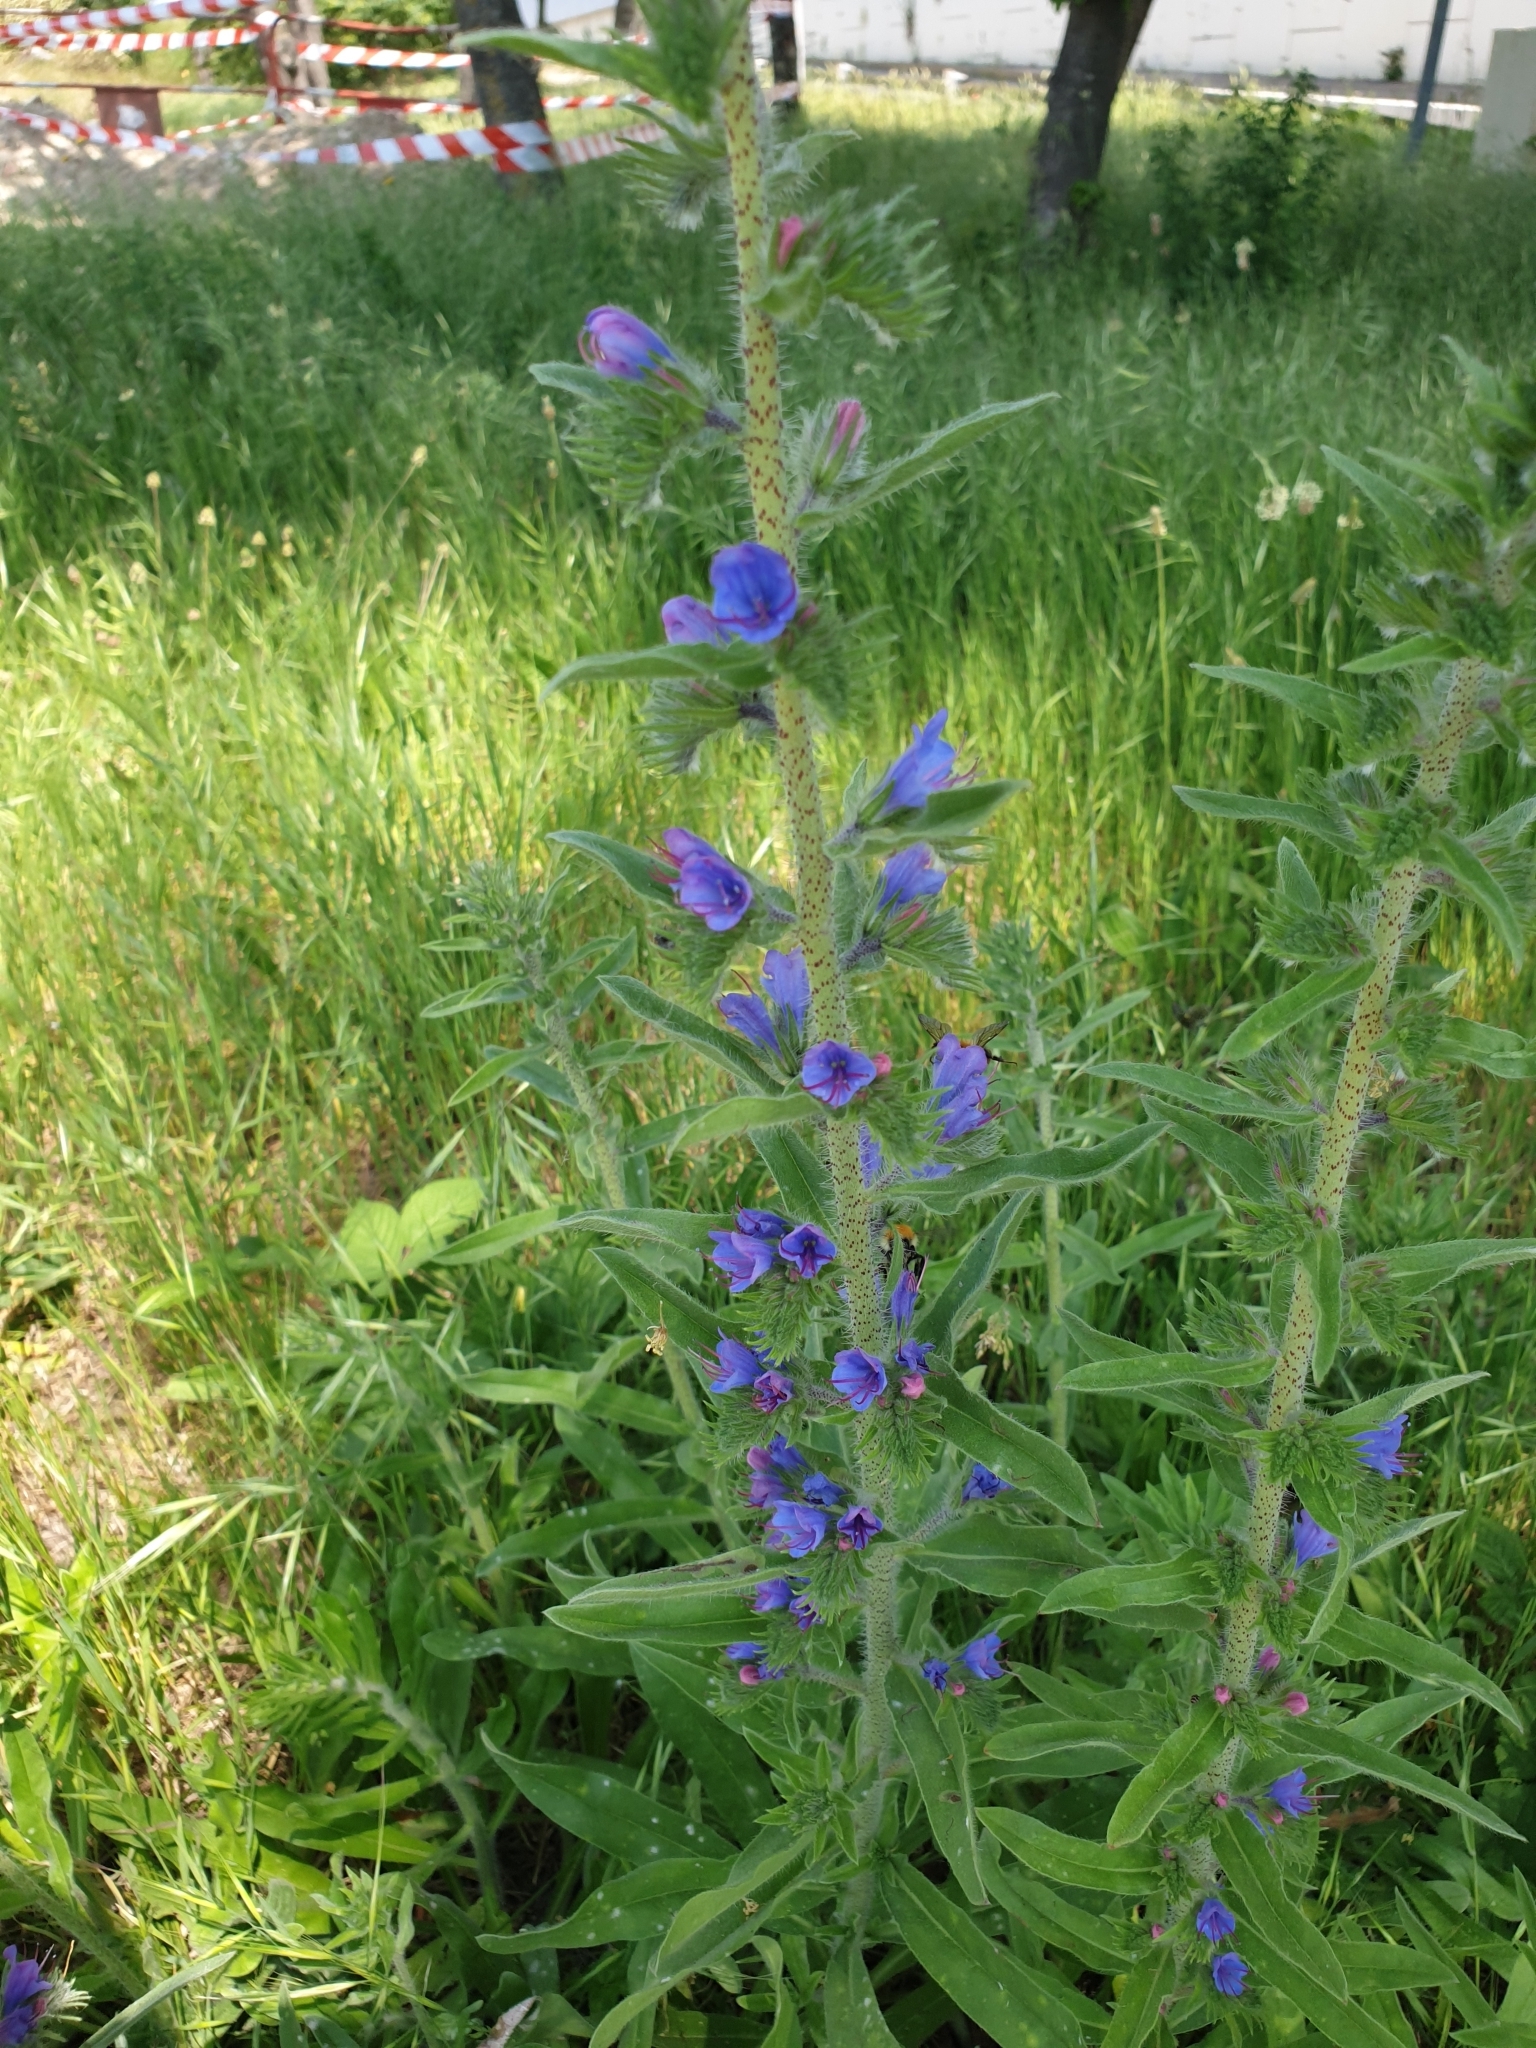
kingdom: Plantae
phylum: Tracheophyta
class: Magnoliopsida
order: Boraginales
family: Boraginaceae
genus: Echium
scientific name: Echium vulgare
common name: Common viper's bugloss
